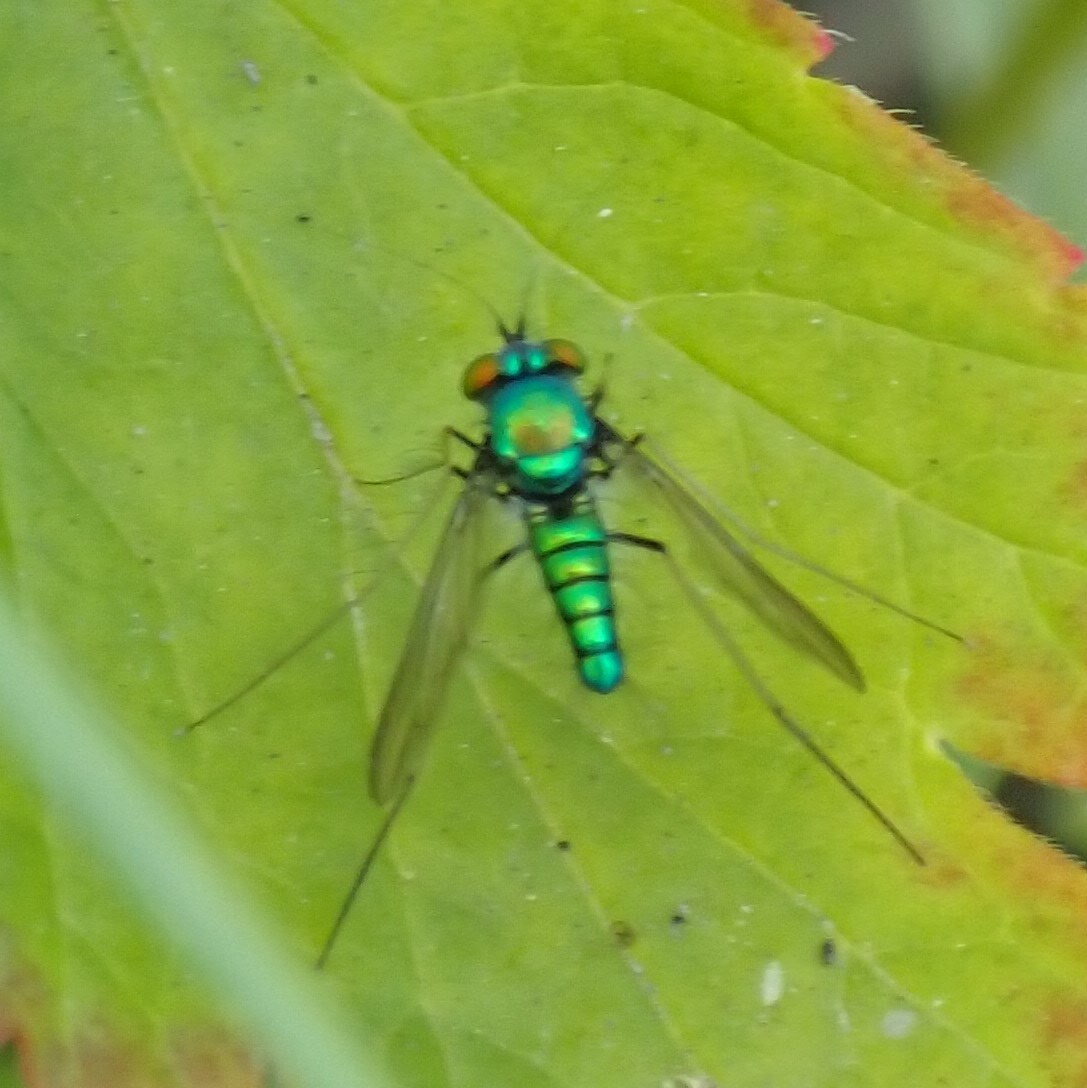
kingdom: Animalia
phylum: Arthropoda
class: Insecta
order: Diptera
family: Dolichopodidae
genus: Condylostylus
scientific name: Condylostylus comatus
